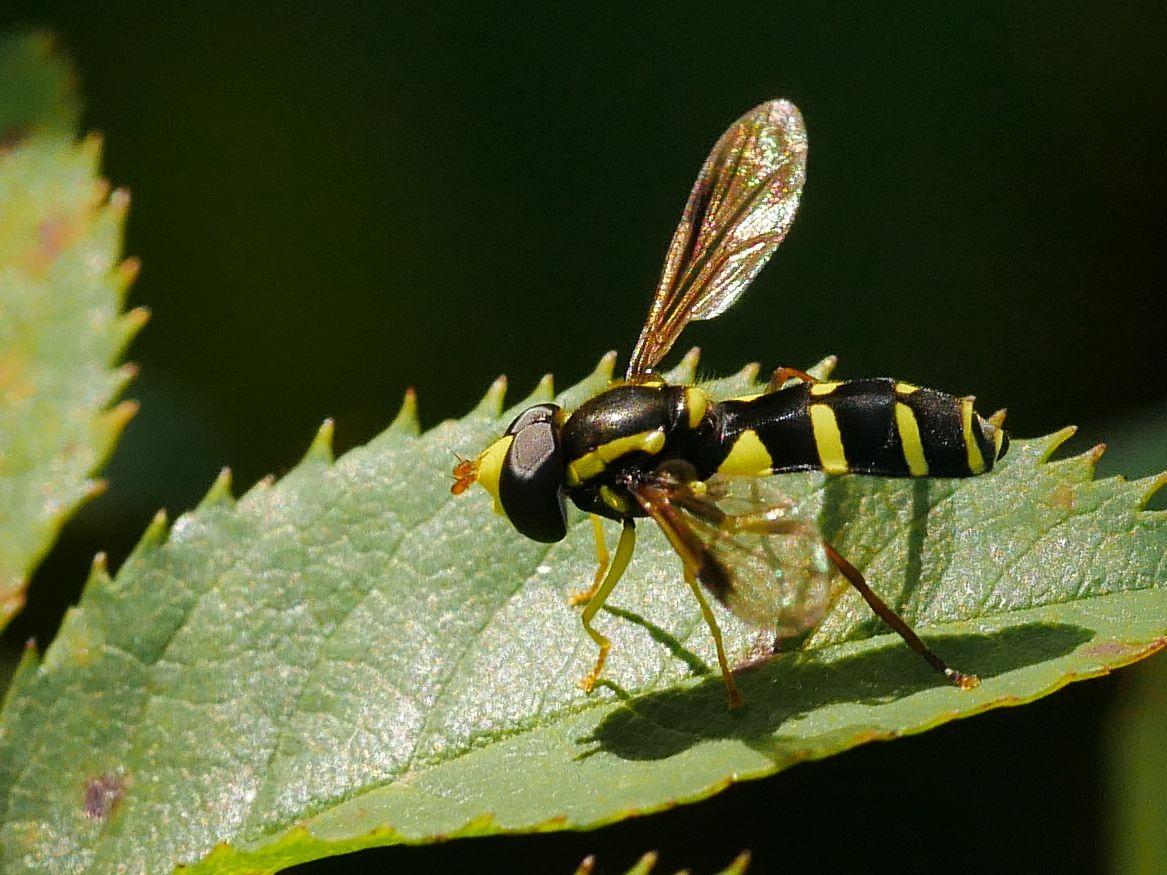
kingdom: Animalia
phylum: Arthropoda
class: Insecta
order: Diptera
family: Syrphidae
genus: Philhelius
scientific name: Philhelius pedissequum
